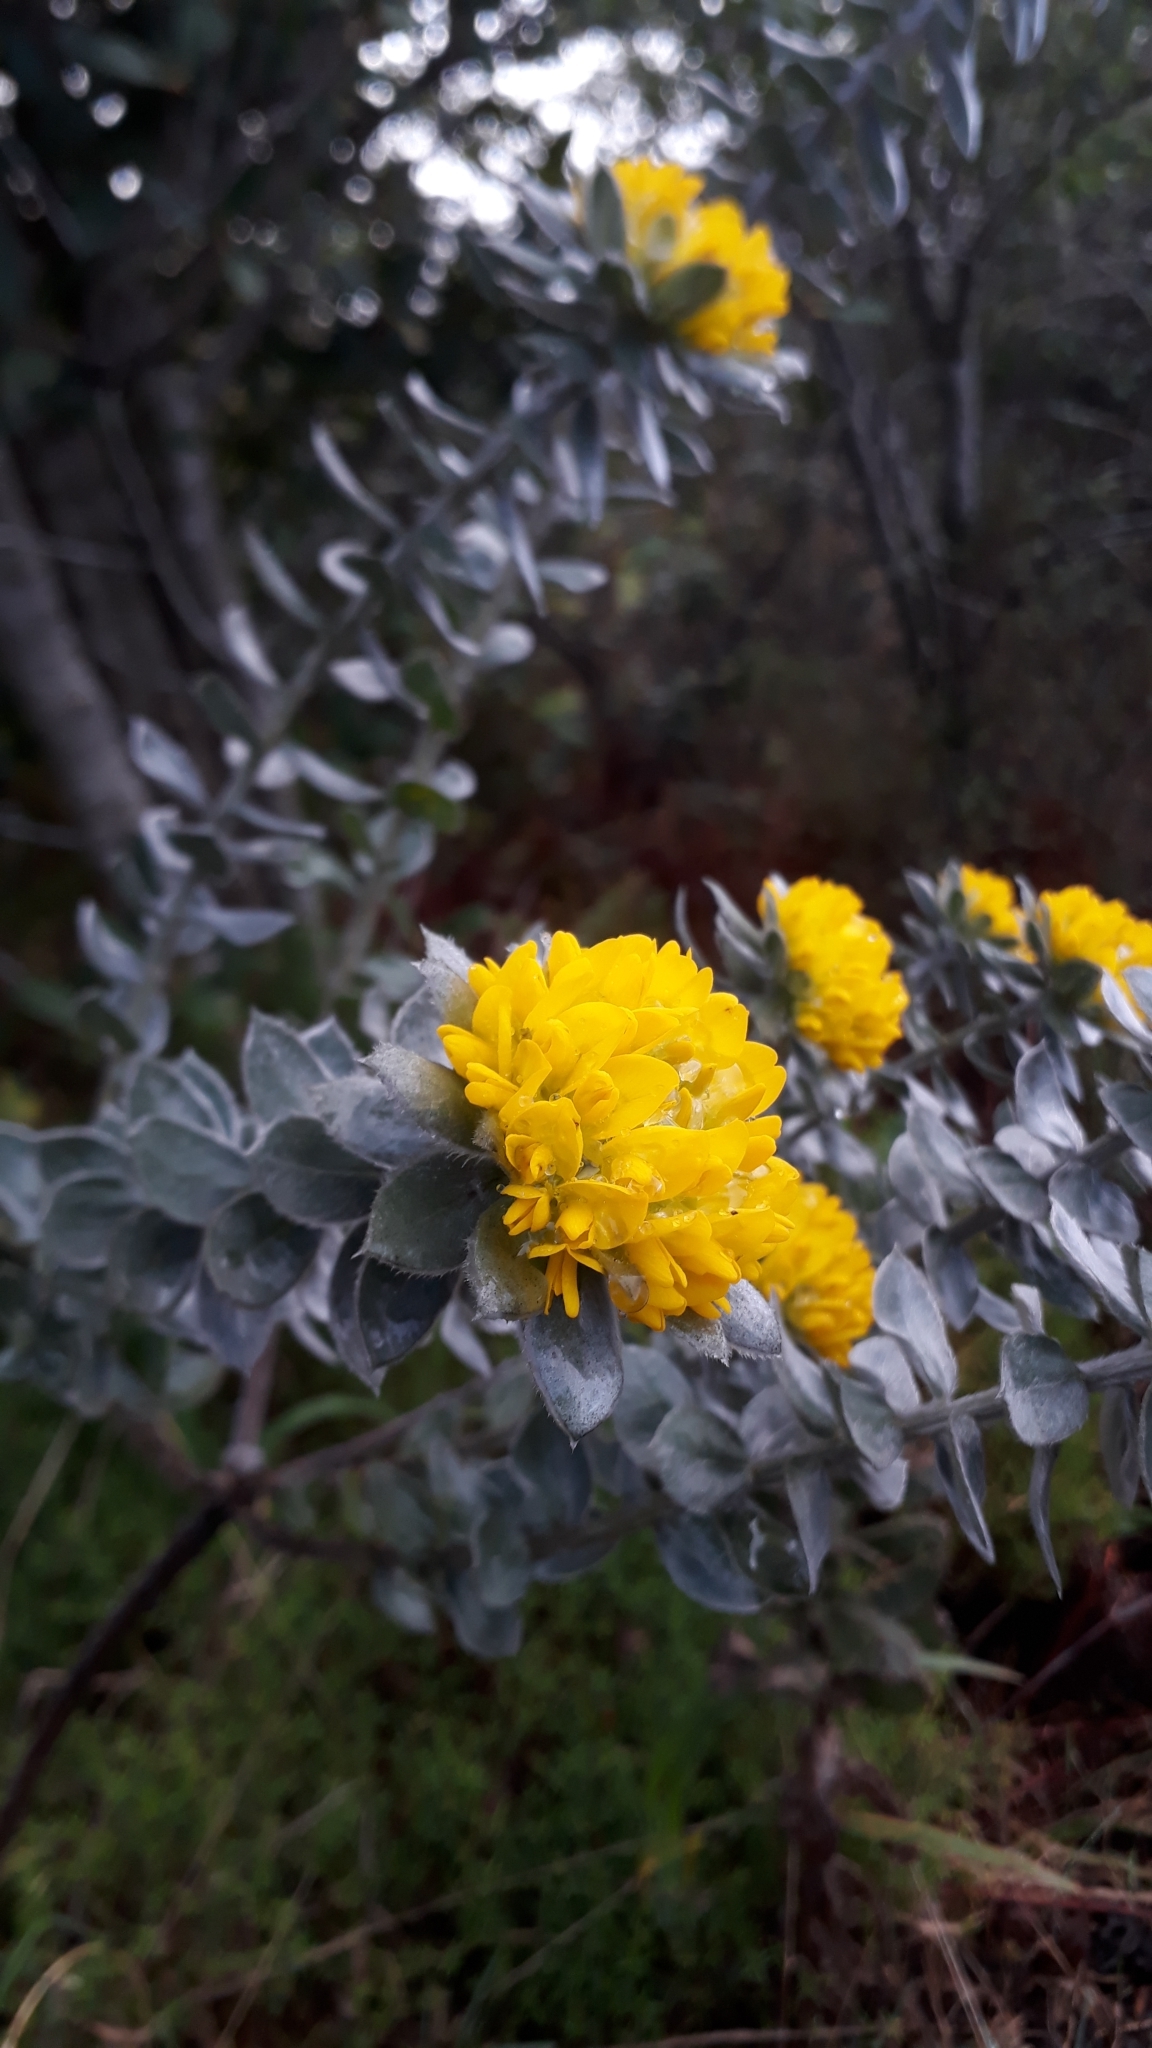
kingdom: Plantae
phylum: Tracheophyta
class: Magnoliopsida
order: Fabales
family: Fabaceae
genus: Xiphotheca
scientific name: Xiphotheca fruticosa
